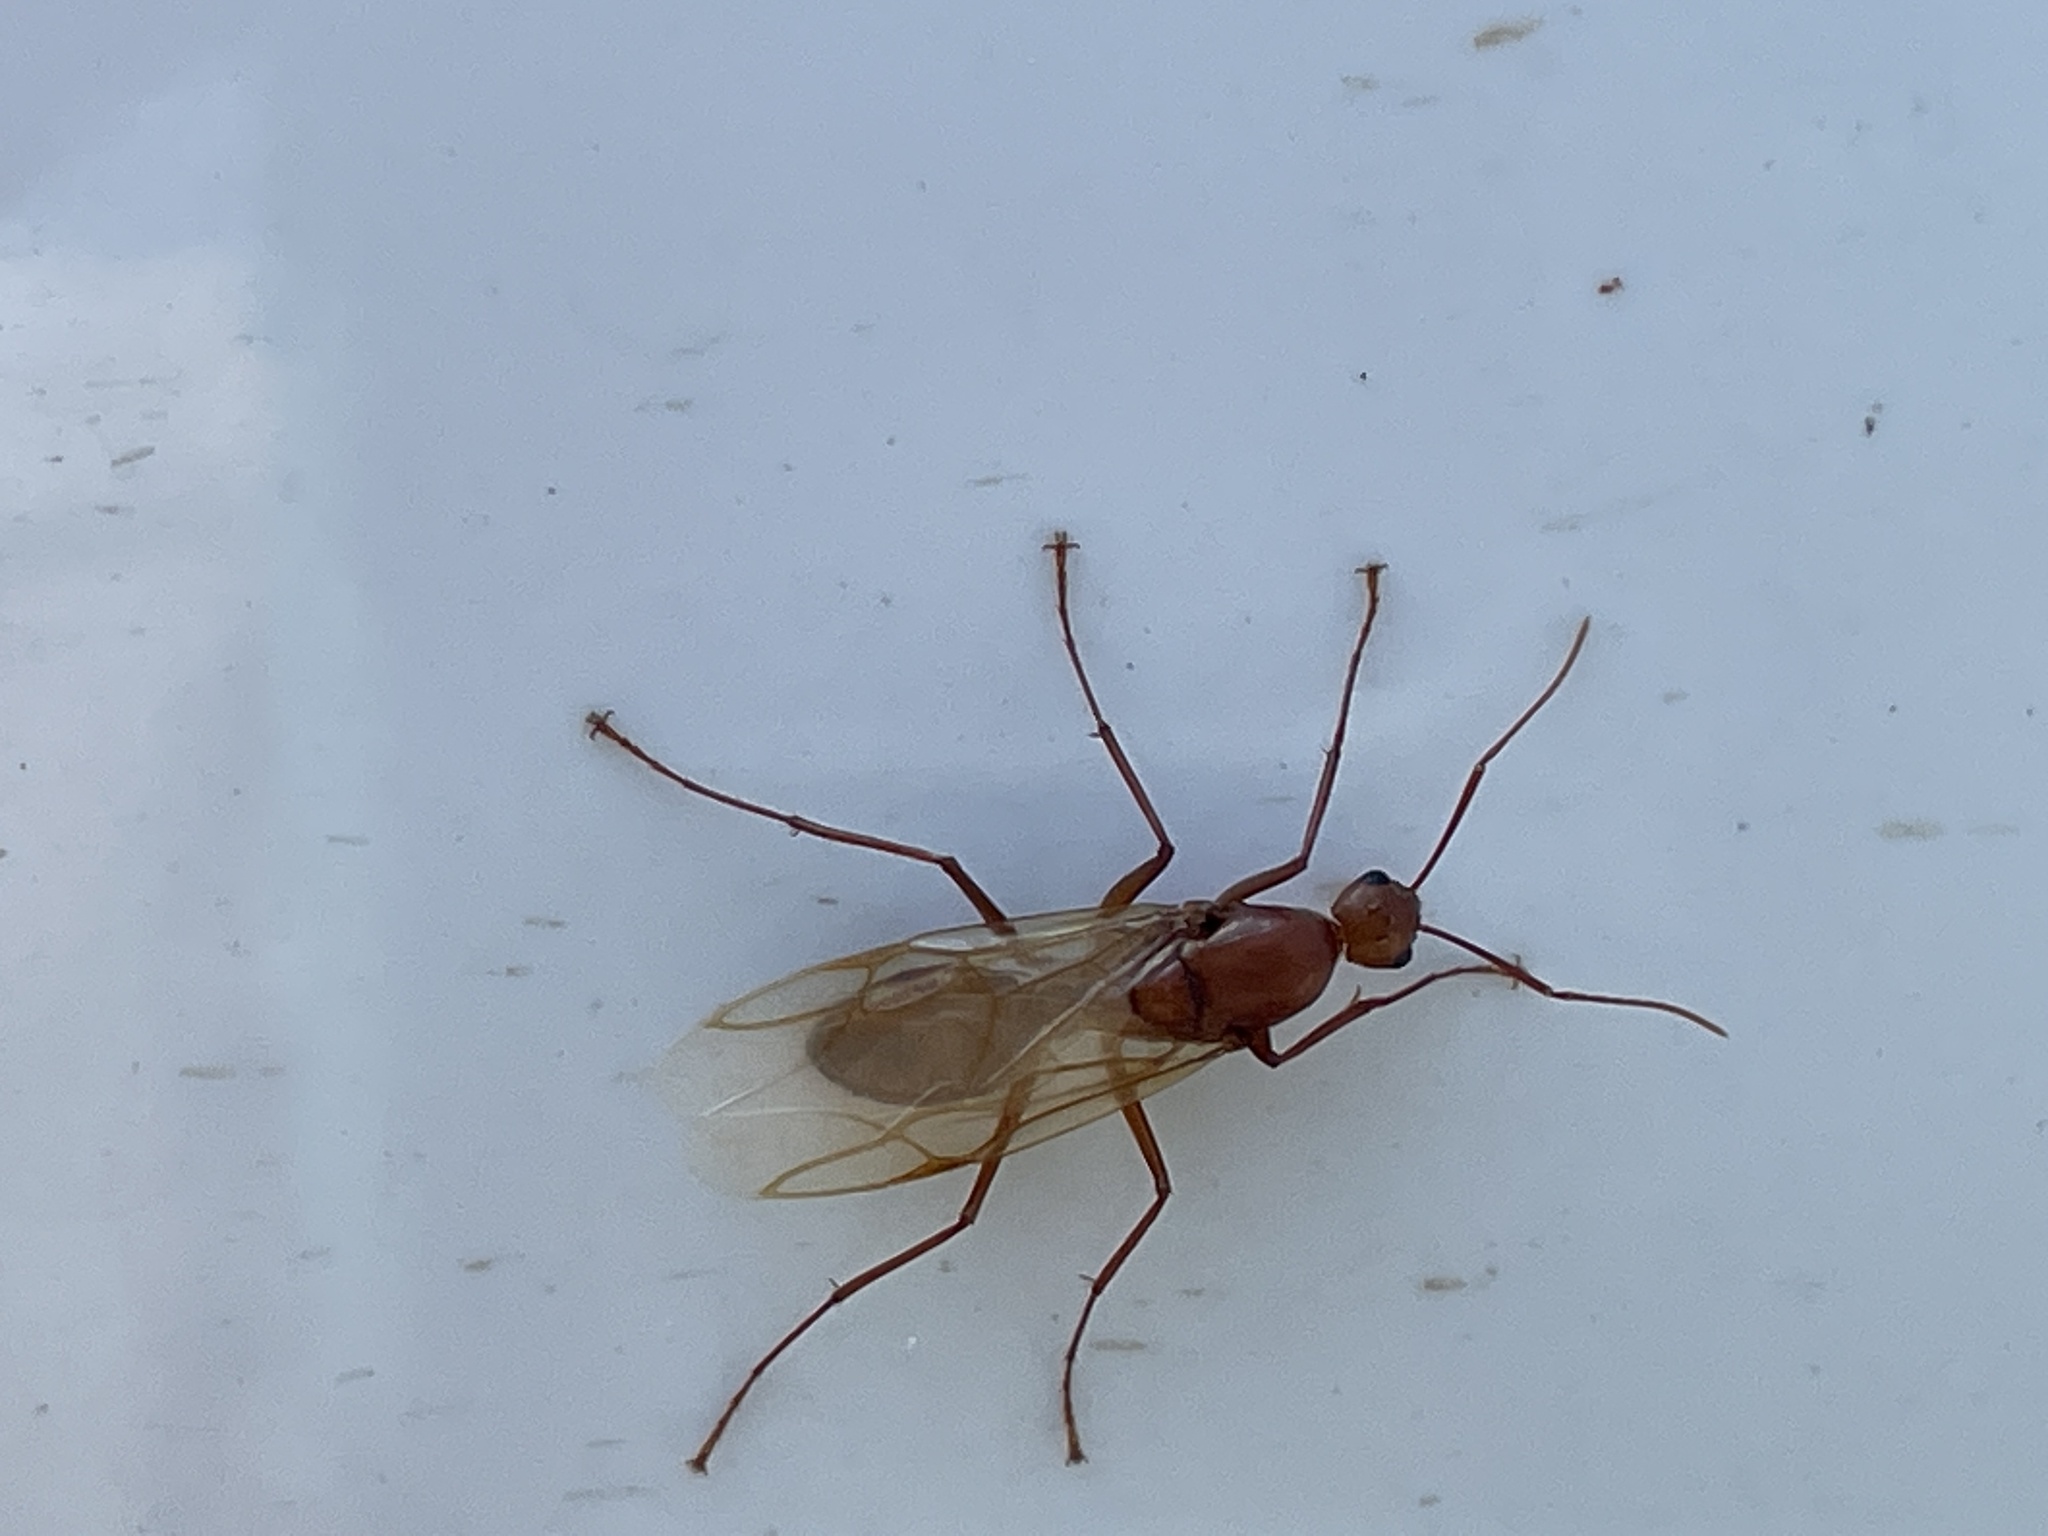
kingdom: Animalia
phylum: Arthropoda
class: Insecta
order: Hymenoptera
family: Formicidae
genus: Camponotus
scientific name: Camponotus castaneus
